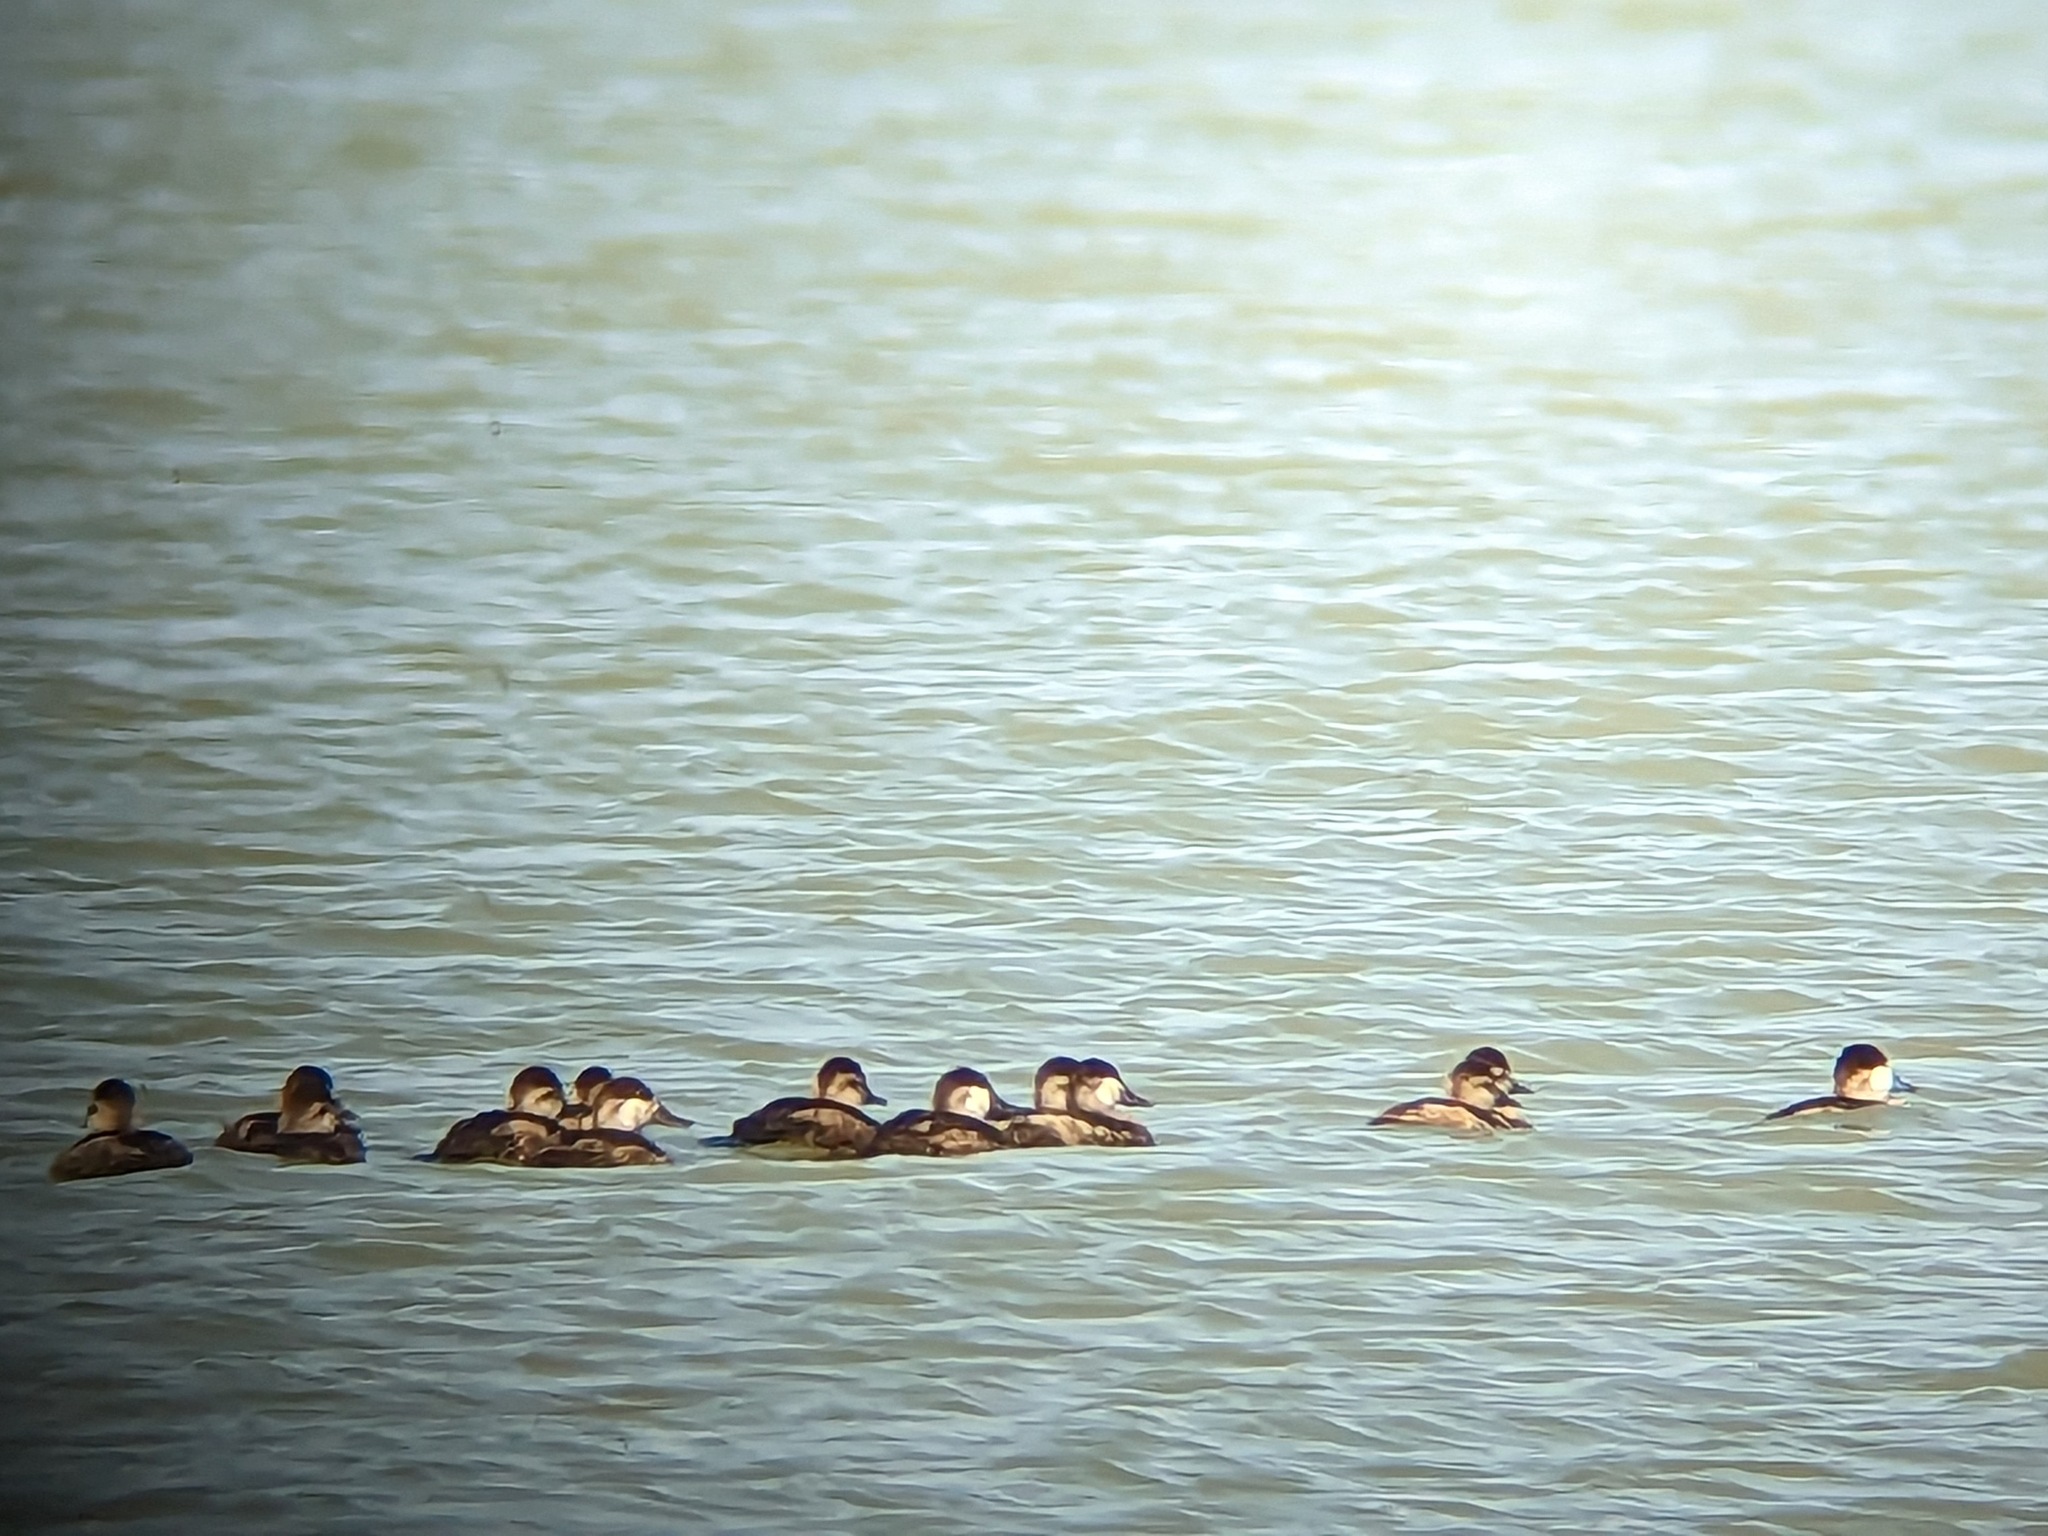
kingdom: Animalia
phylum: Chordata
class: Aves
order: Anseriformes
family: Anatidae
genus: Oxyura
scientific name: Oxyura jamaicensis
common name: Ruddy duck
